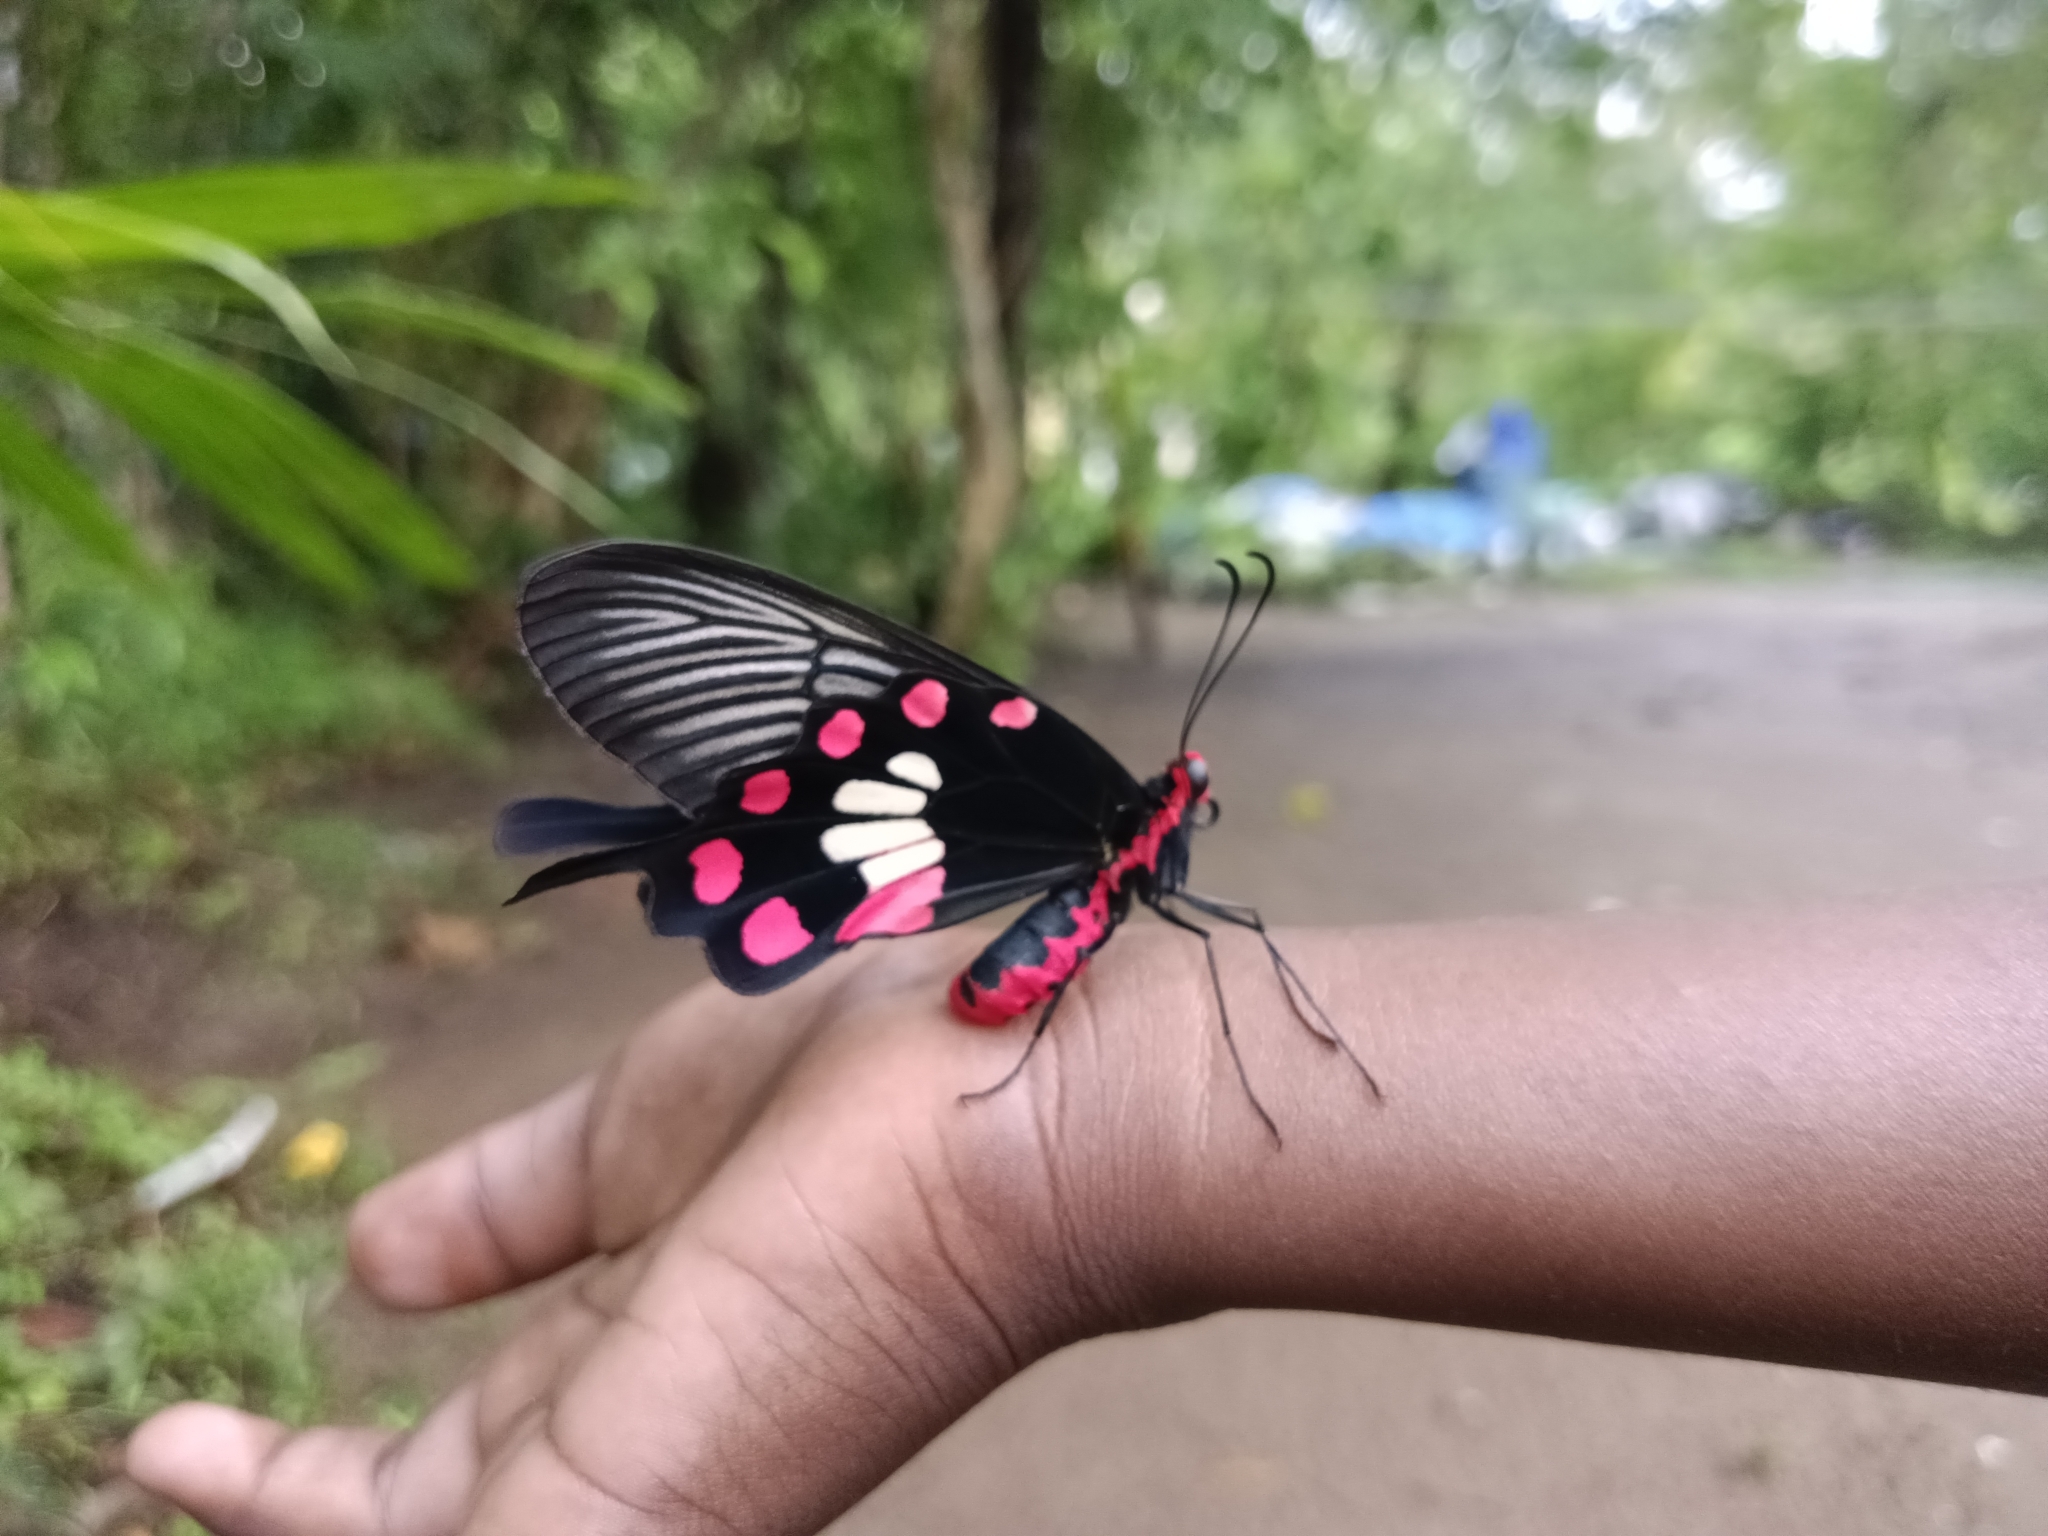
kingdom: Animalia
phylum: Arthropoda
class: Insecta
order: Lepidoptera
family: Papilionidae
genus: Pachliopta
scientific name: Pachliopta aristolochiae
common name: Common rose
